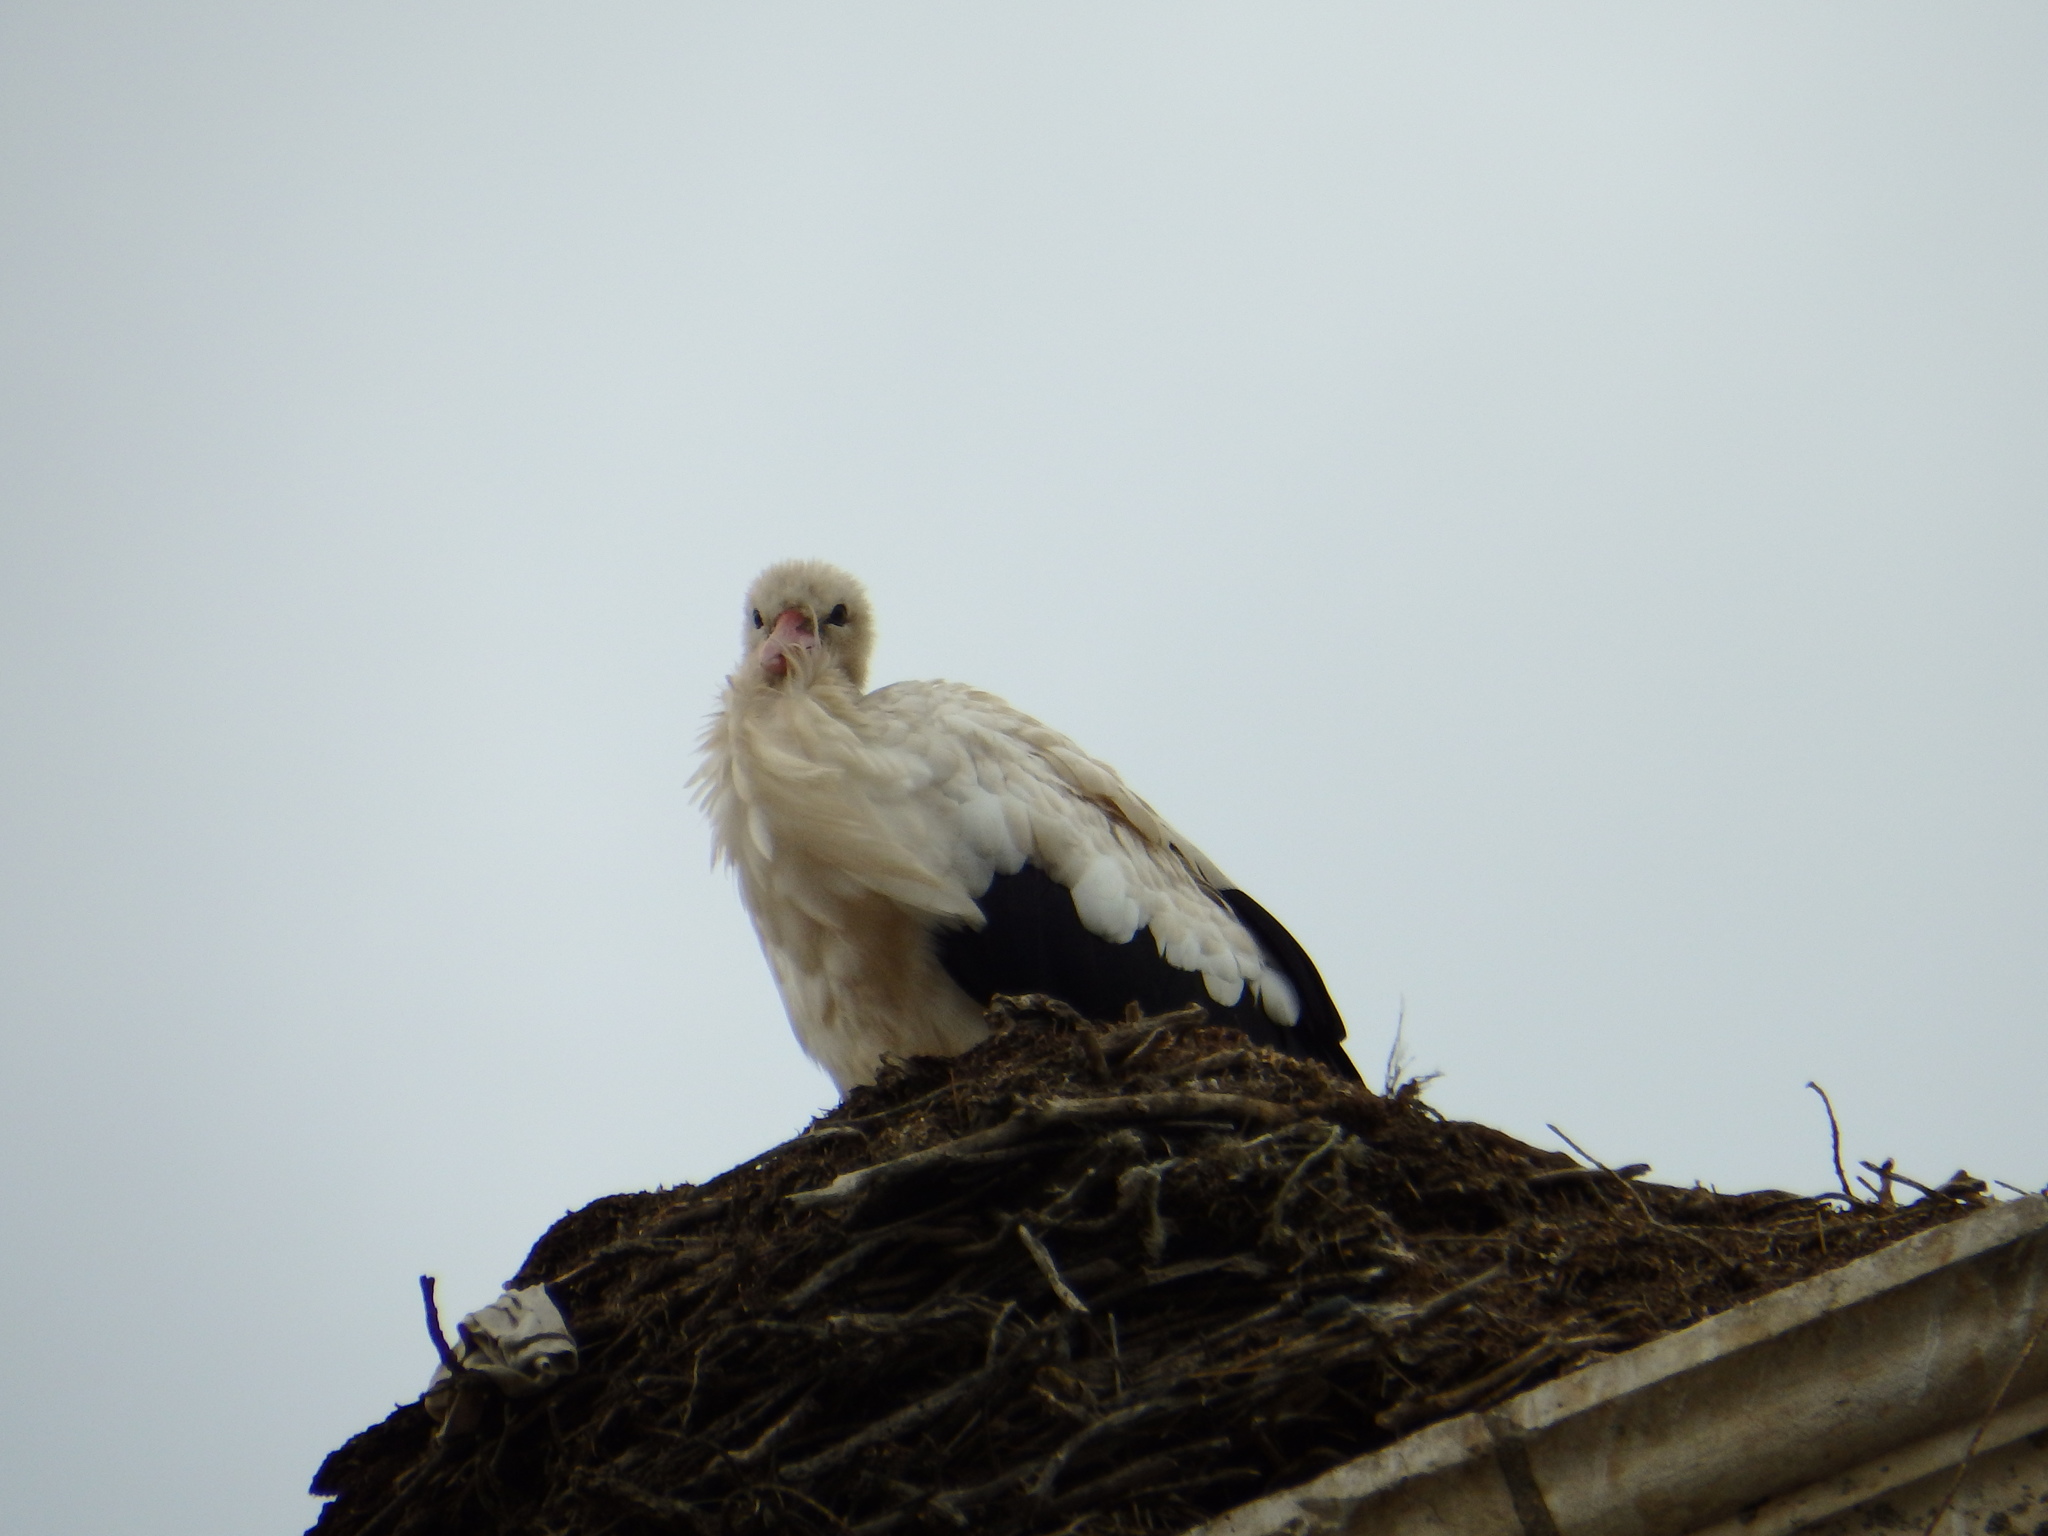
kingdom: Animalia
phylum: Chordata
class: Aves
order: Ciconiiformes
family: Ciconiidae
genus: Ciconia
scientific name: Ciconia ciconia
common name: White stork
